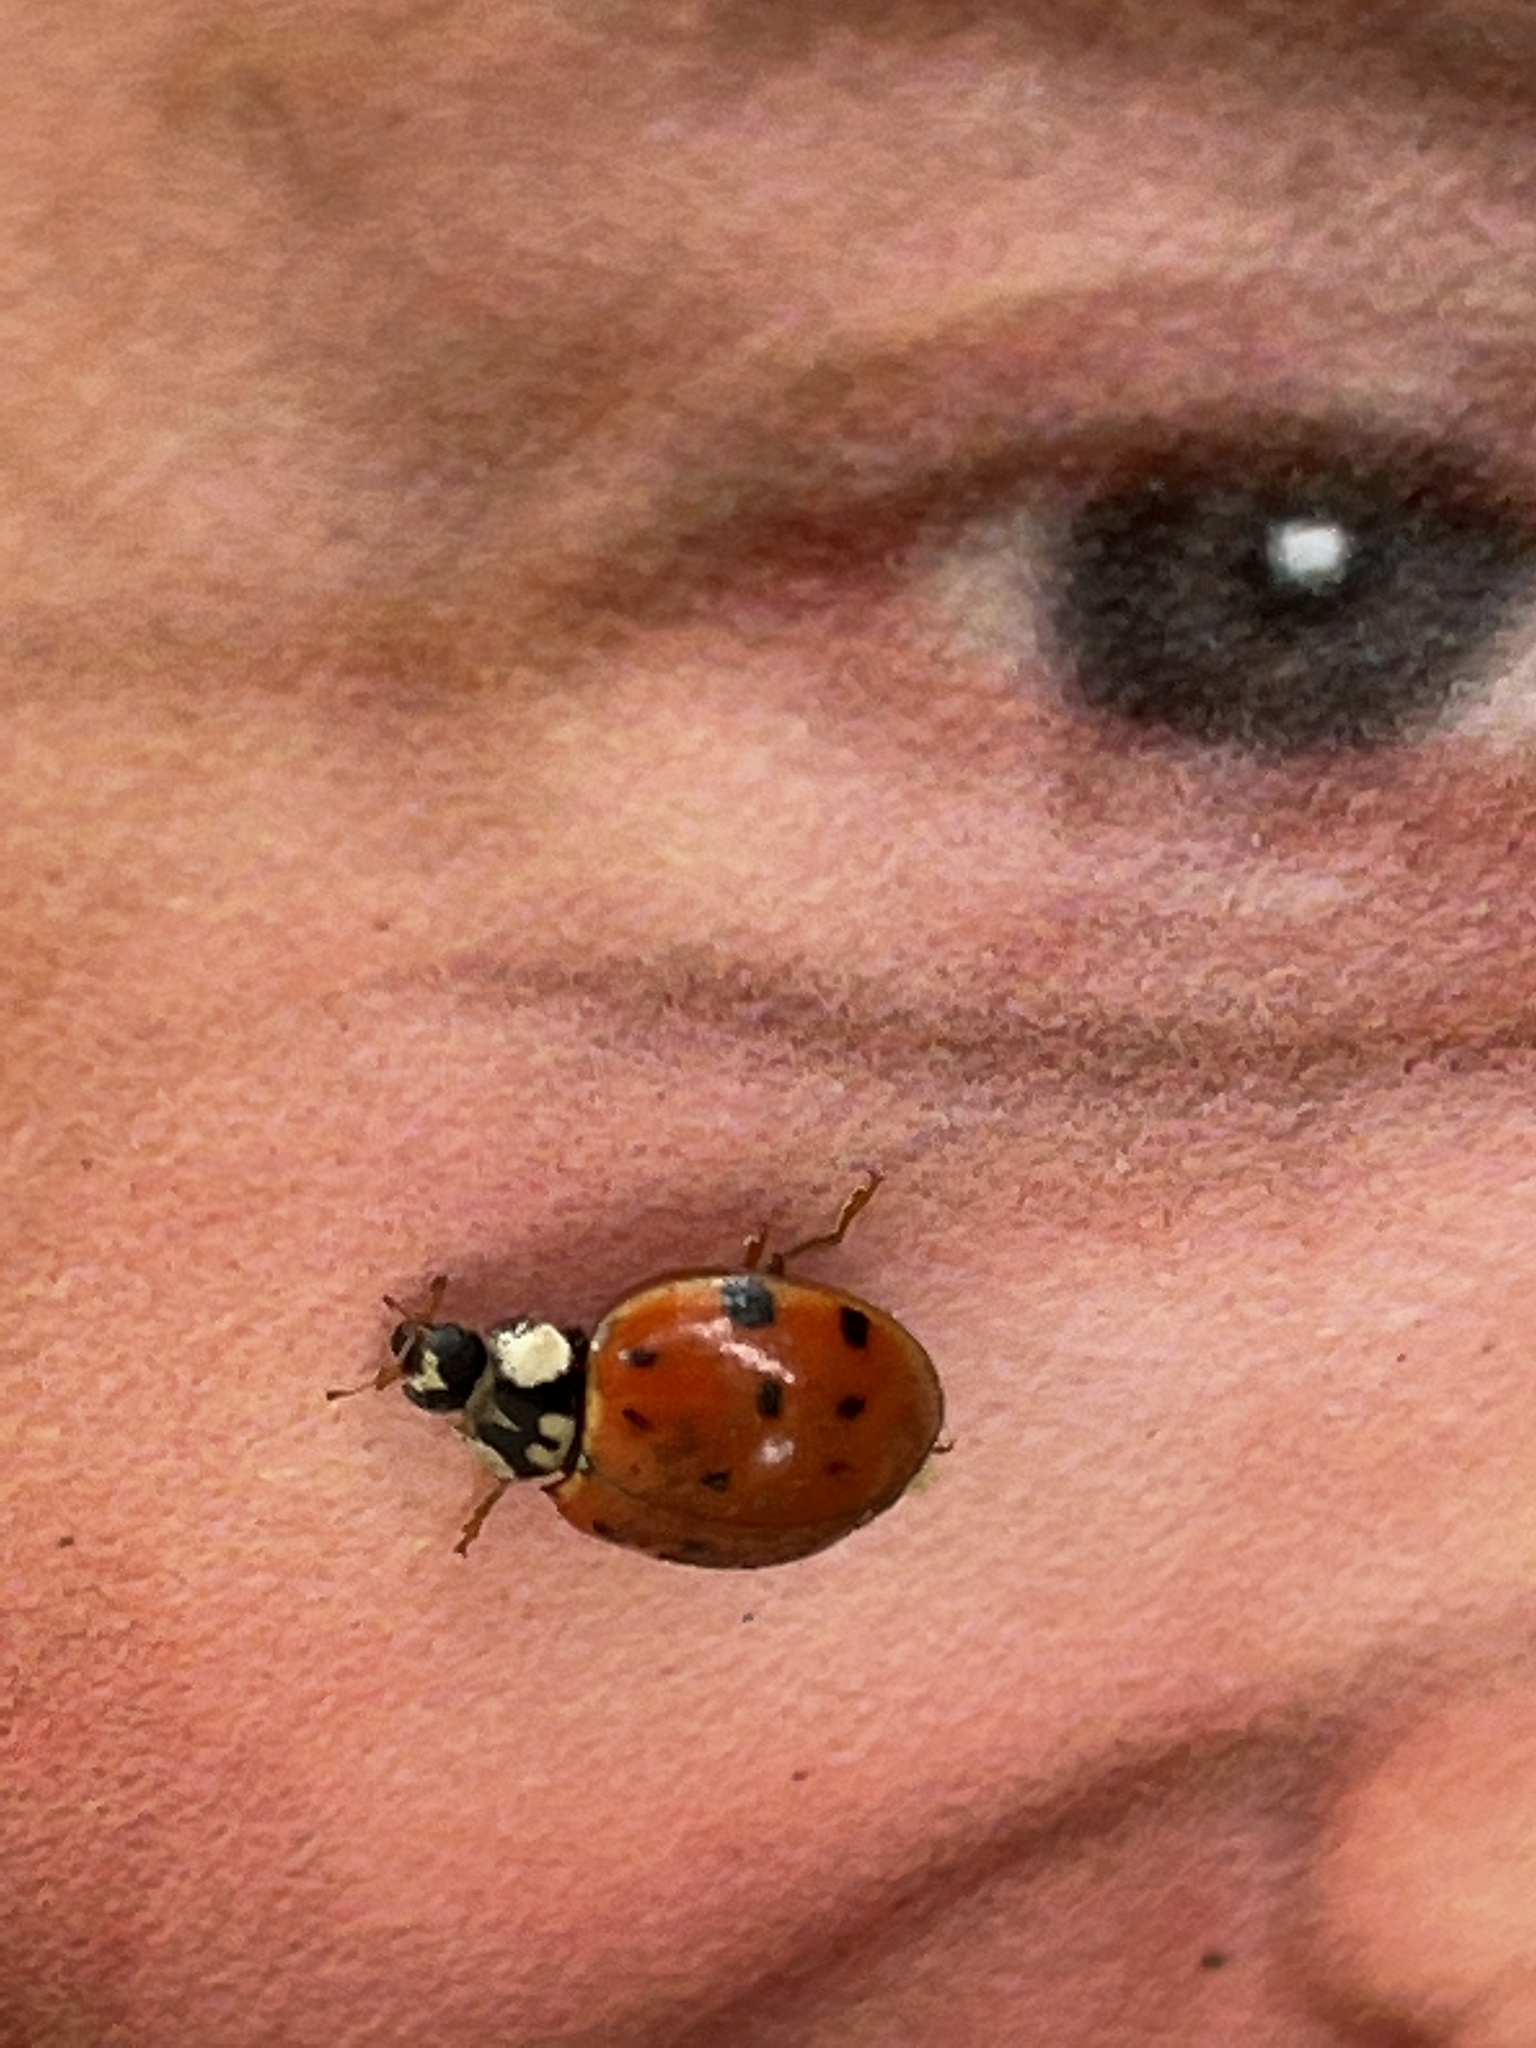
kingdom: Animalia
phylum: Arthropoda
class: Insecta
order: Coleoptera
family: Coccinellidae
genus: Harmonia
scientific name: Harmonia axyridis
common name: Harlequin ladybird
